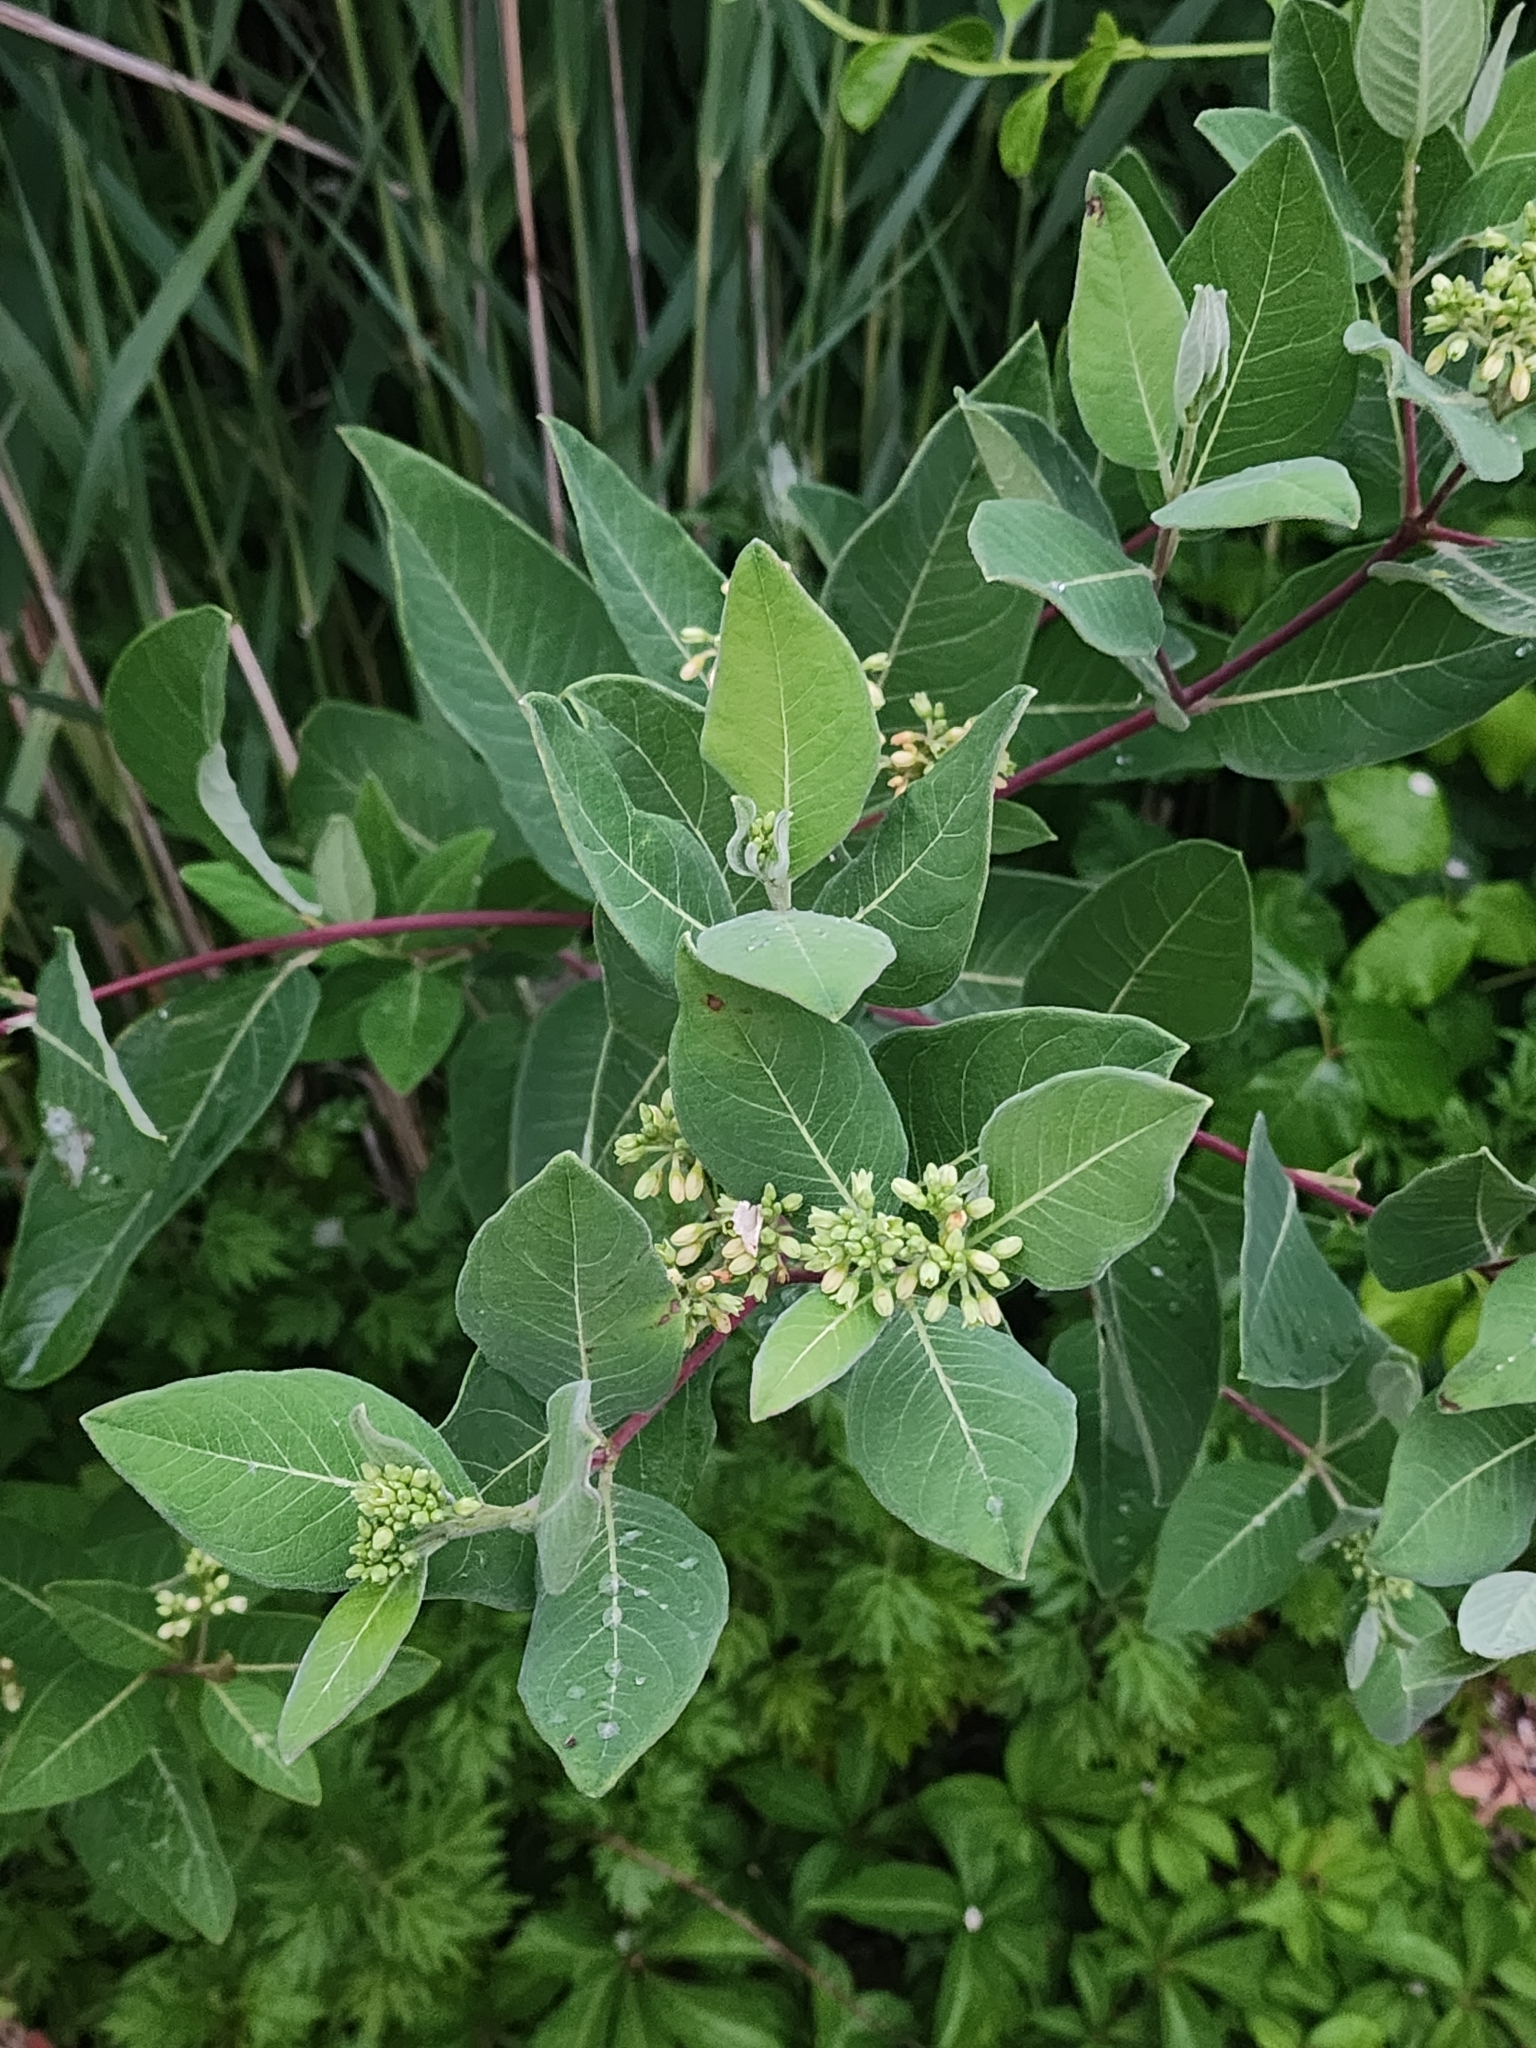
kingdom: Plantae
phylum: Tracheophyta
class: Magnoliopsida
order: Gentianales
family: Apocynaceae
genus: Apocynum
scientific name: Apocynum cannabinum
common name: Hemp dogbane
